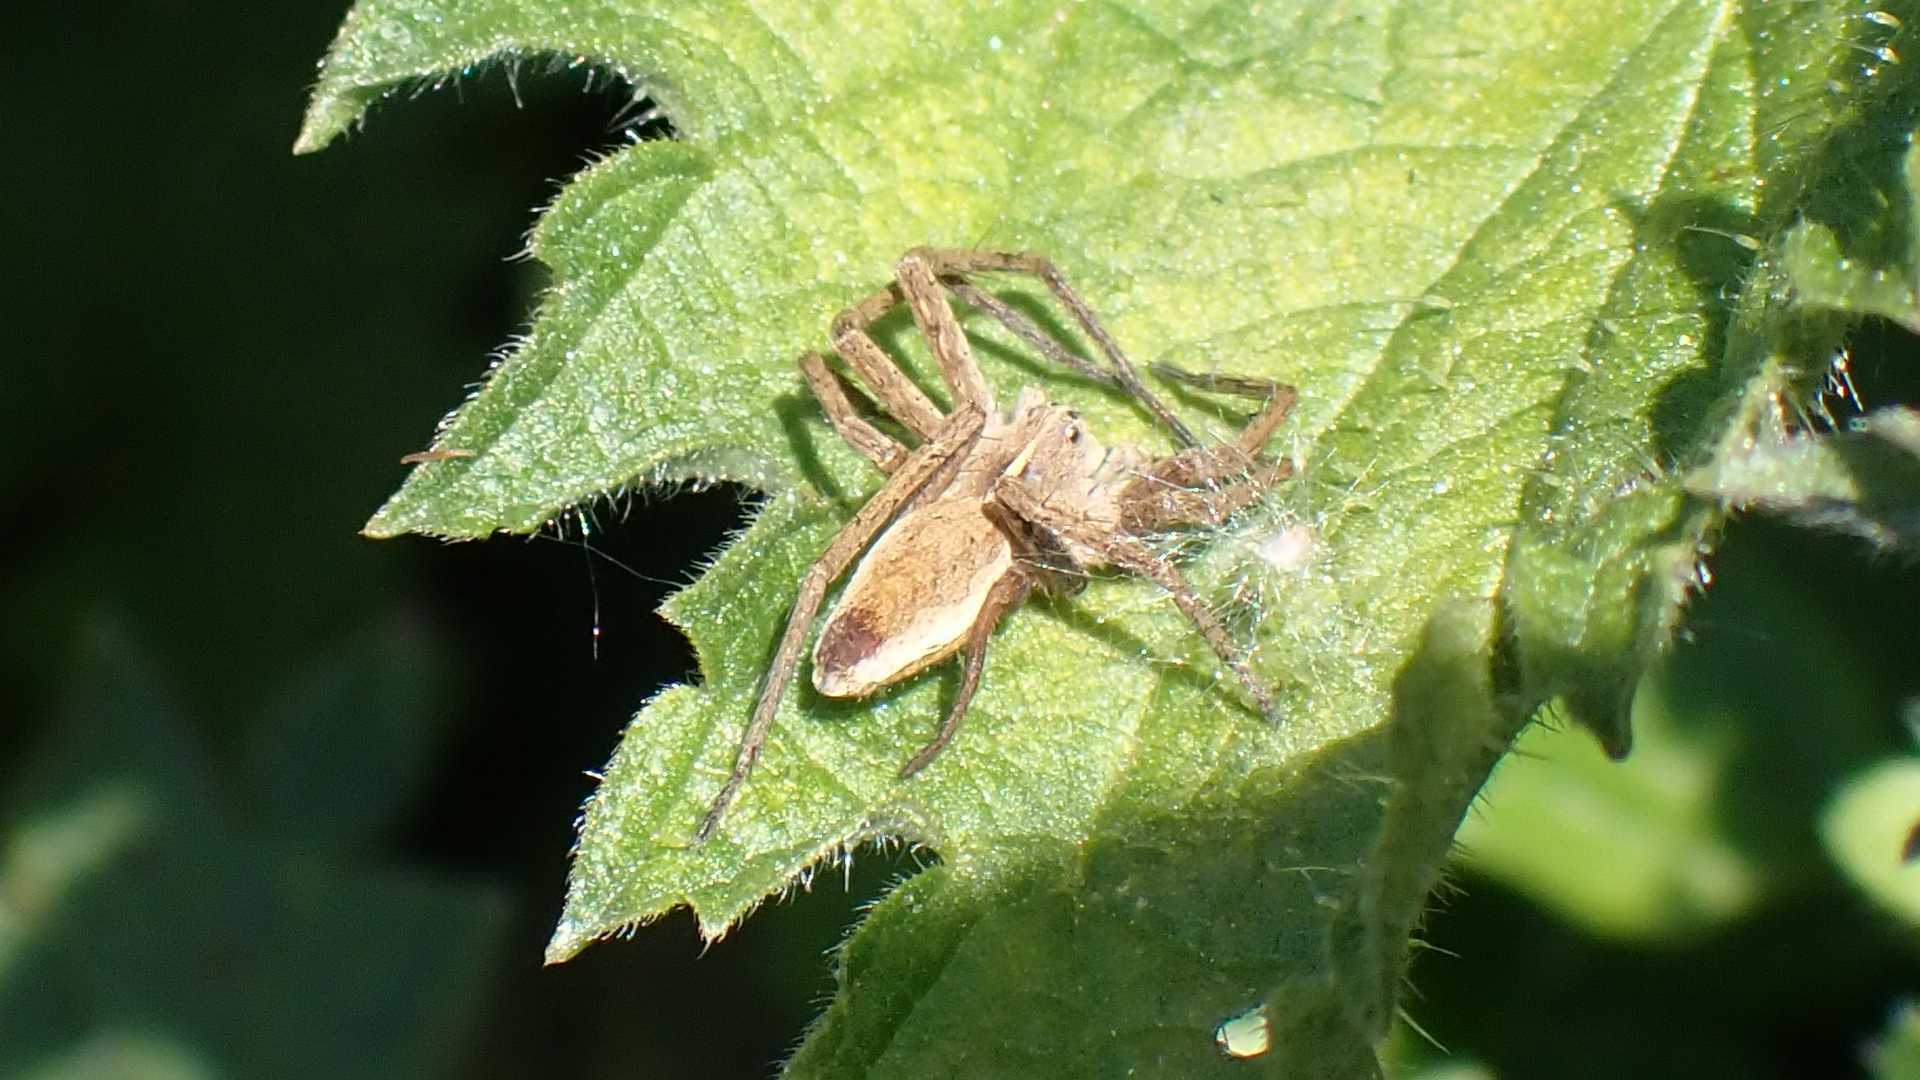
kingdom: Animalia
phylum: Arthropoda
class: Arachnida
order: Araneae
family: Pisauridae
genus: Pisaura
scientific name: Pisaura mirabilis
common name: Tent spider
